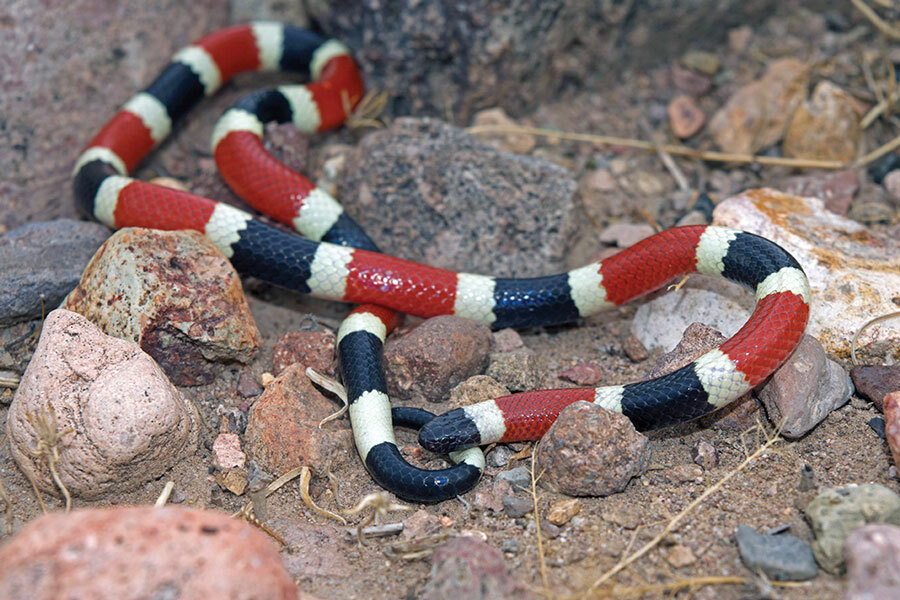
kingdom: Animalia
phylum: Chordata
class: Squamata
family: Elapidae
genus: Micruroides
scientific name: Micruroides euryxanthus
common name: Western coral snake
